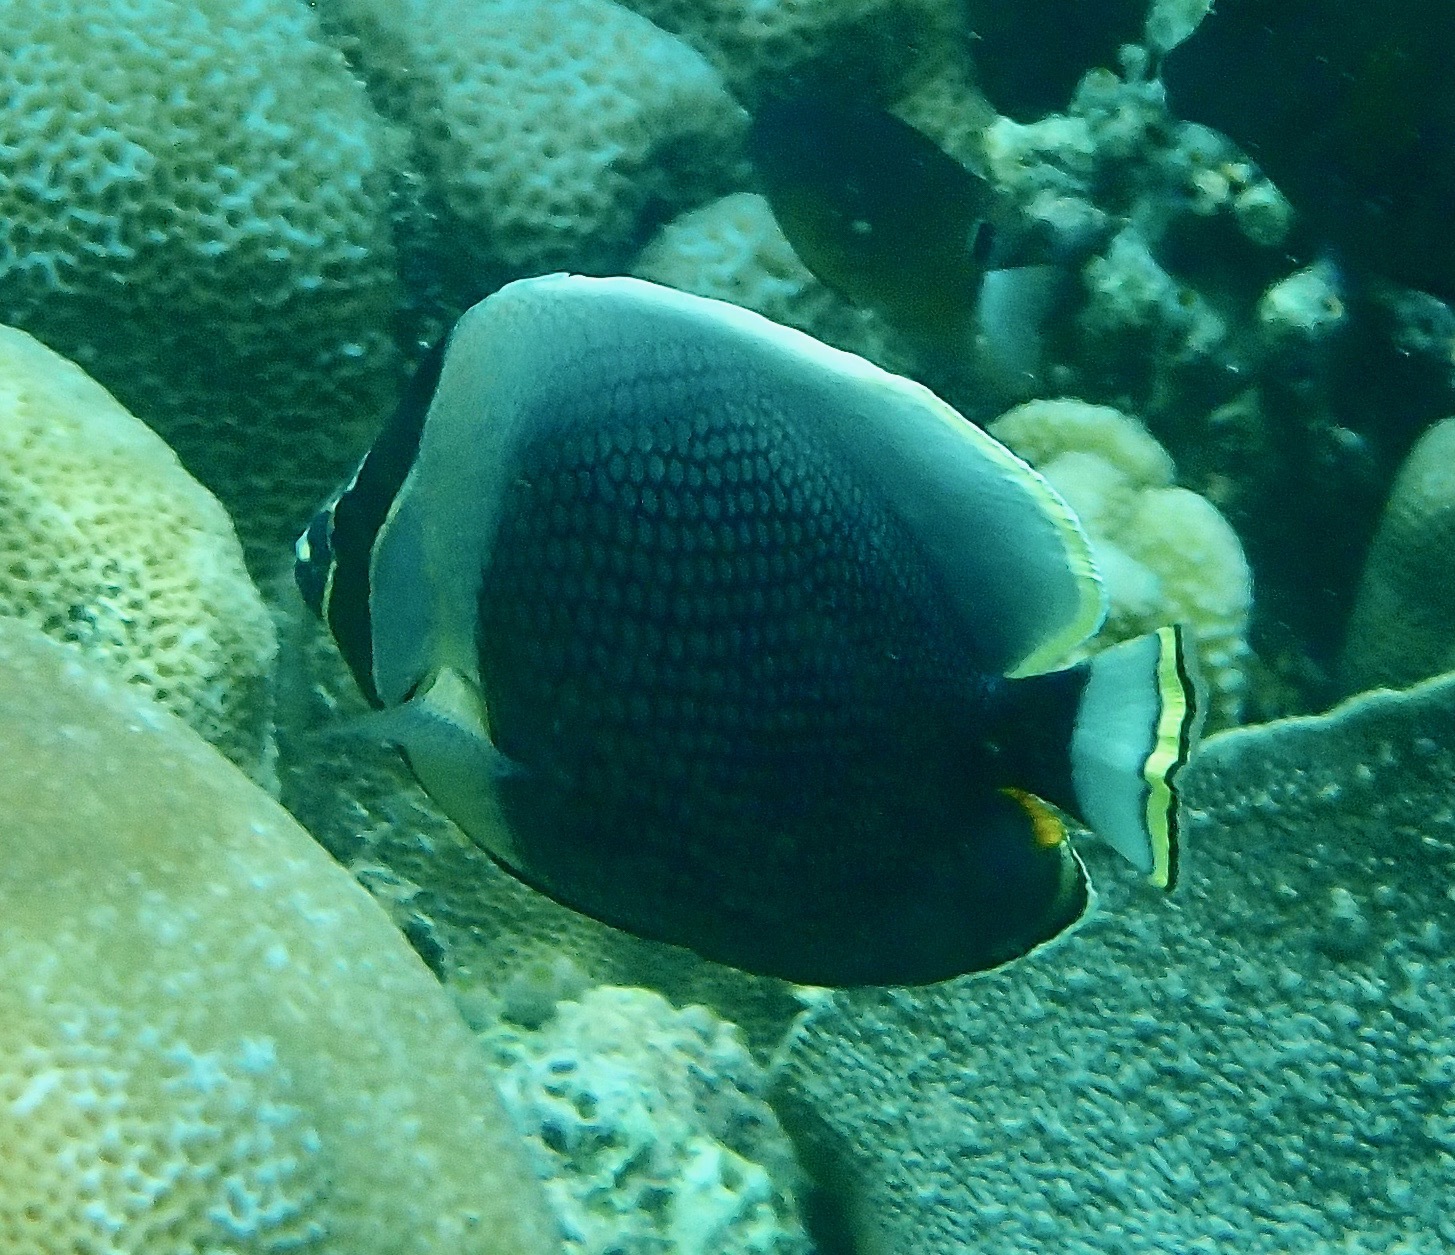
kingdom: Animalia
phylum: Chordata
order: Perciformes
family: Chaetodontidae
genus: Chaetodon
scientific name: Chaetodon reticulatus
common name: Reticulated butterflyfish
